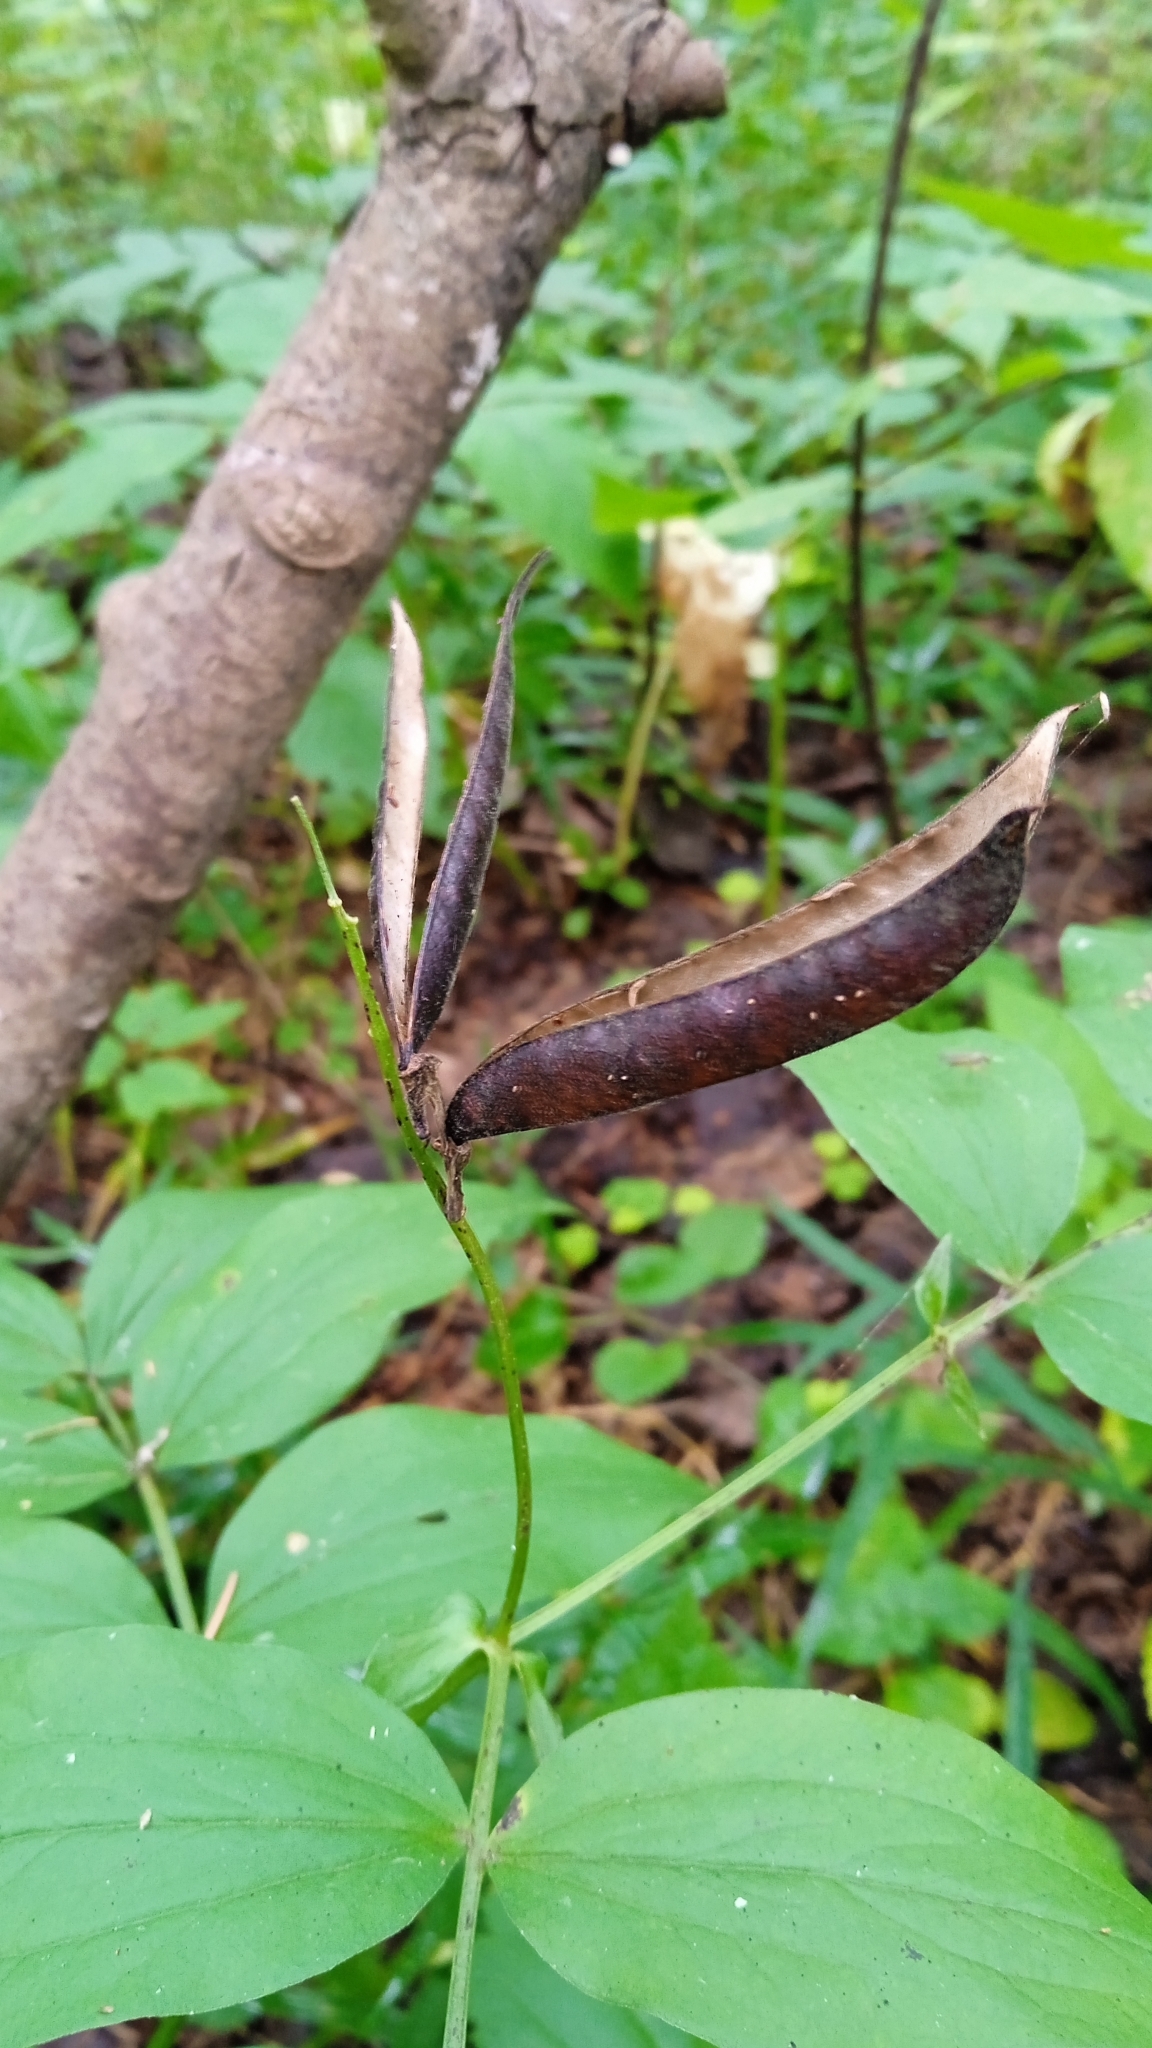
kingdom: Plantae
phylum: Tracheophyta
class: Magnoliopsida
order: Fabales
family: Fabaceae
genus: Lathyrus
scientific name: Lathyrus vernus
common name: Spring pea
